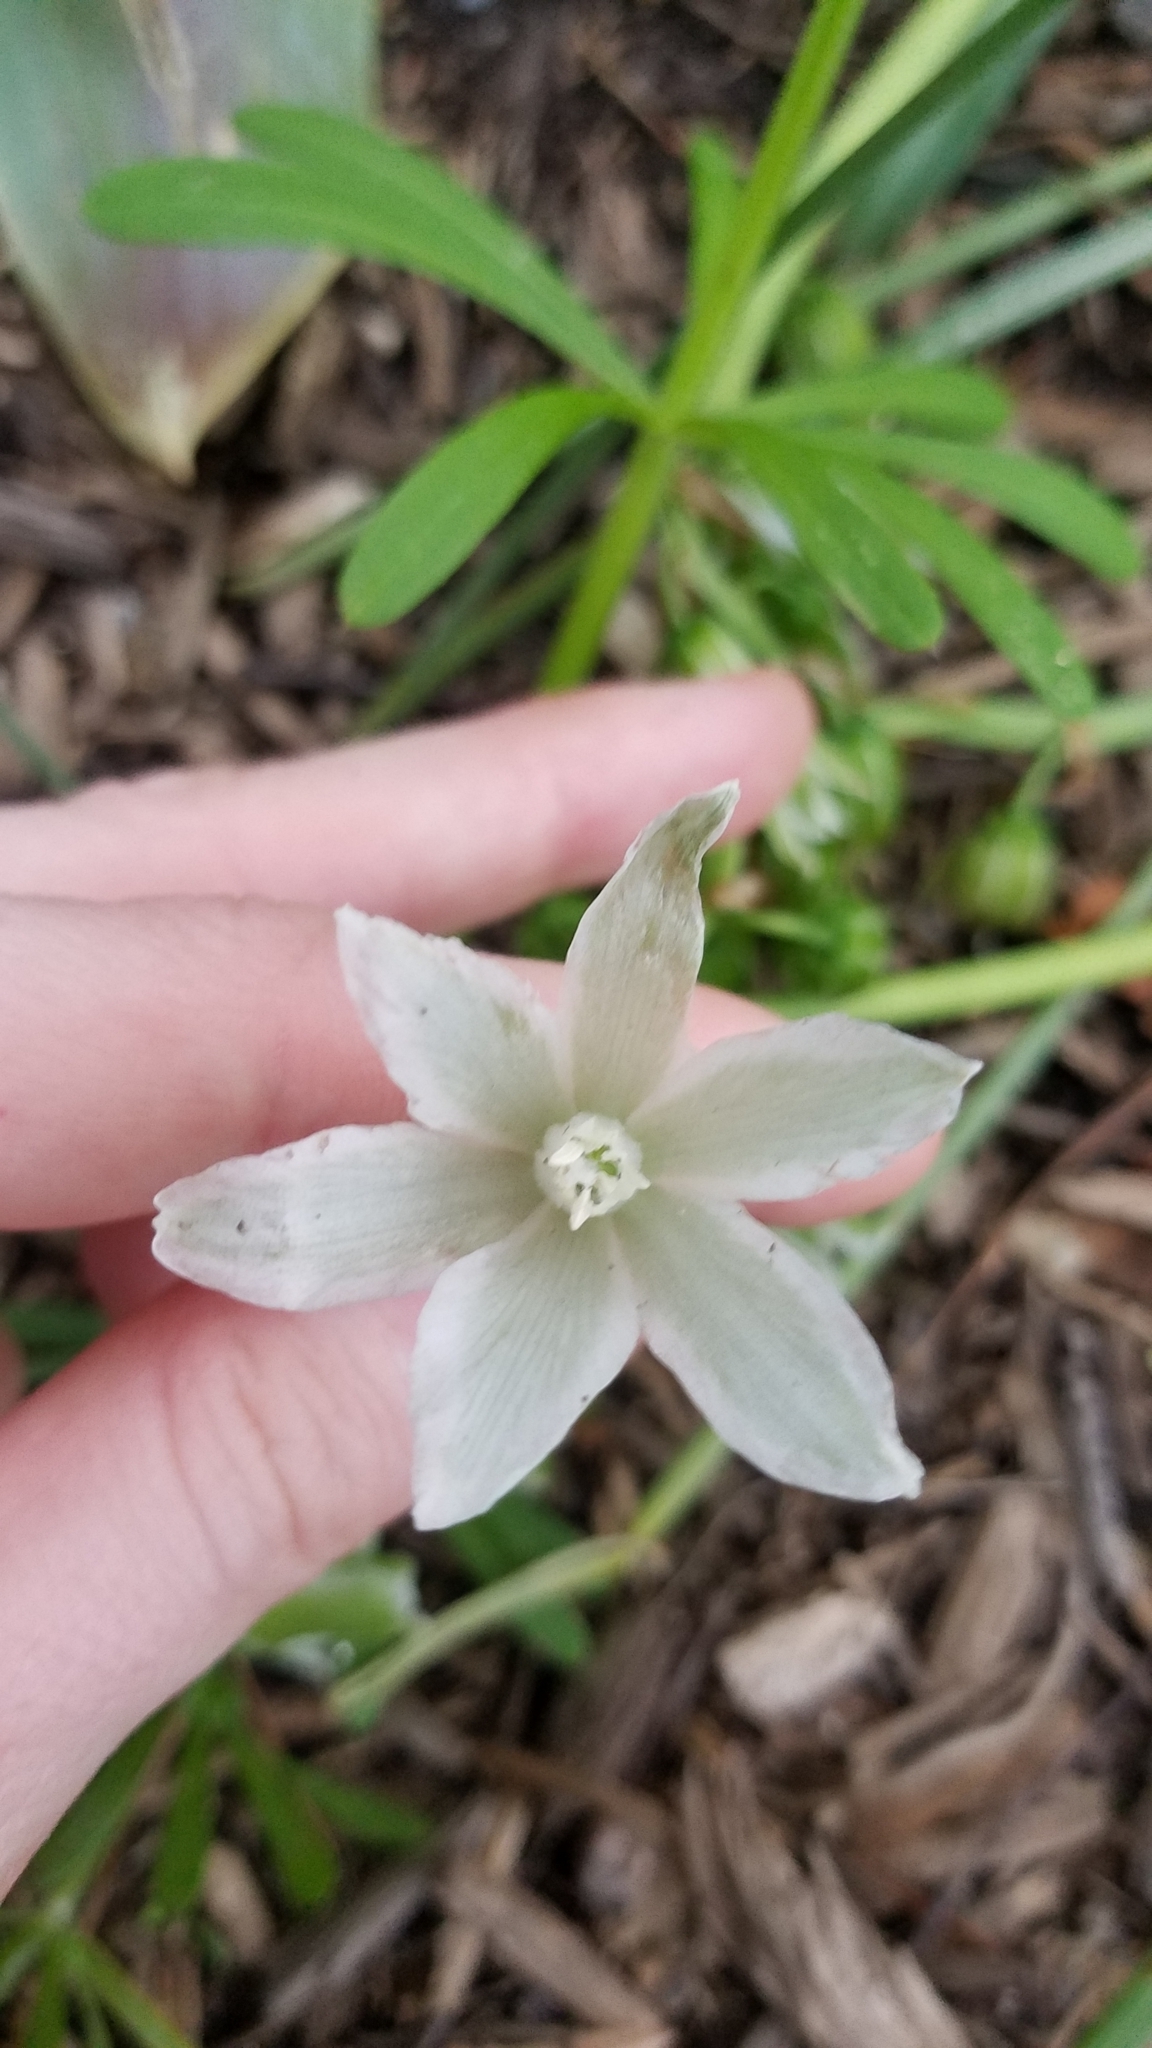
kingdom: Plantae
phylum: Tracheophyta
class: Liliopsida
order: Asparagales
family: Asparagaceae
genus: Ornithogalum
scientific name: Ornithogalum nutans
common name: Drooping star-of-bethlehem
